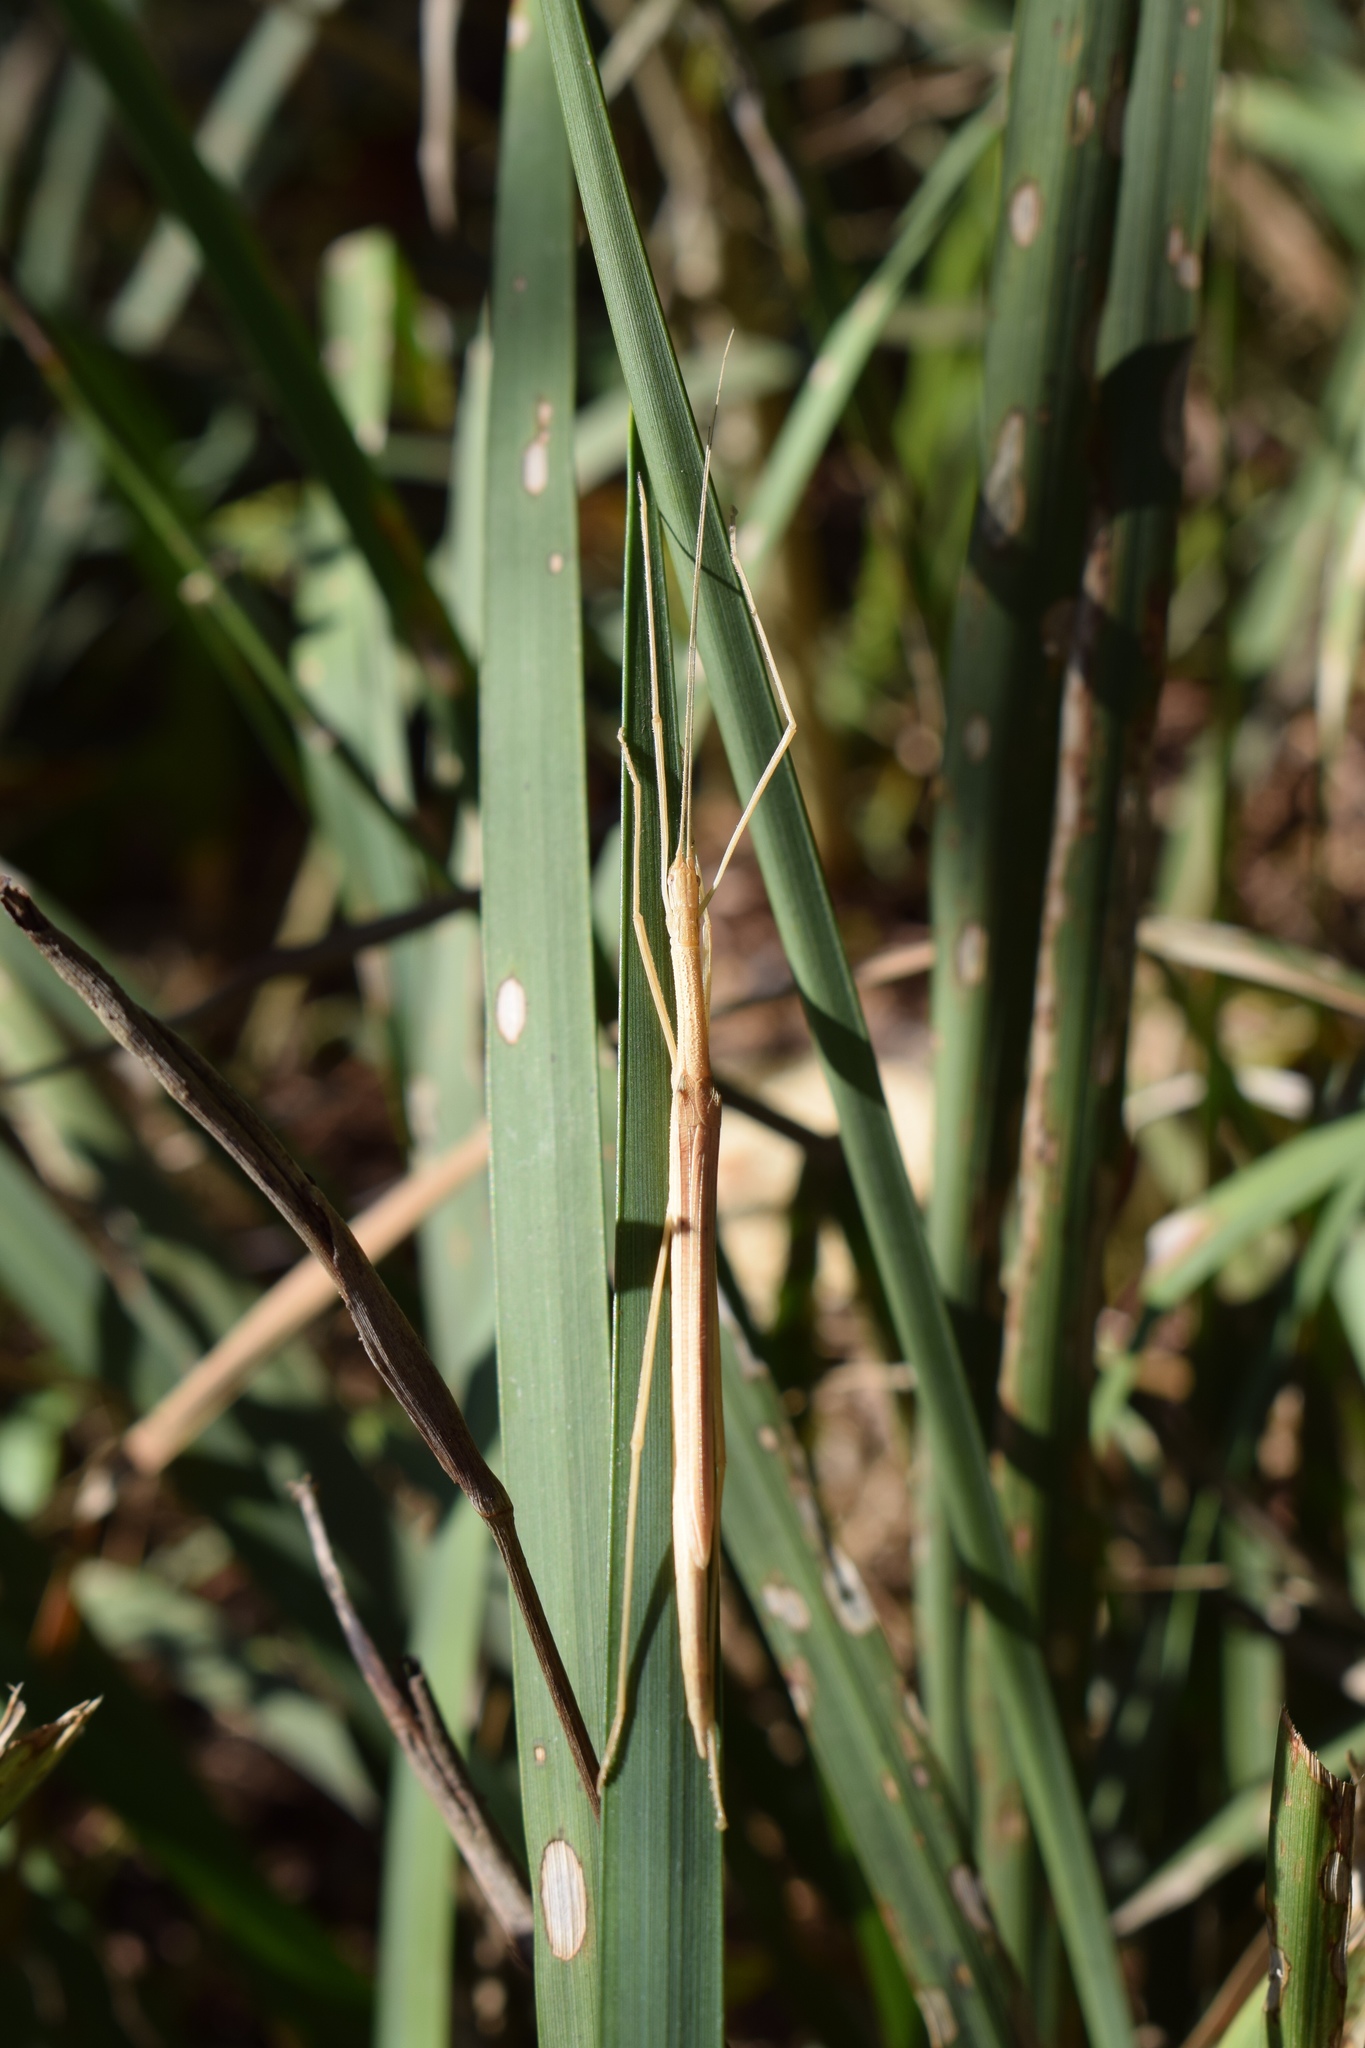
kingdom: Animalia
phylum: Arthropoda
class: Insecta
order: Phasmida
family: Lonchodidae
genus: Sipyloidea
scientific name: Sipyloidea sipylus
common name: Madagascan stick insect
